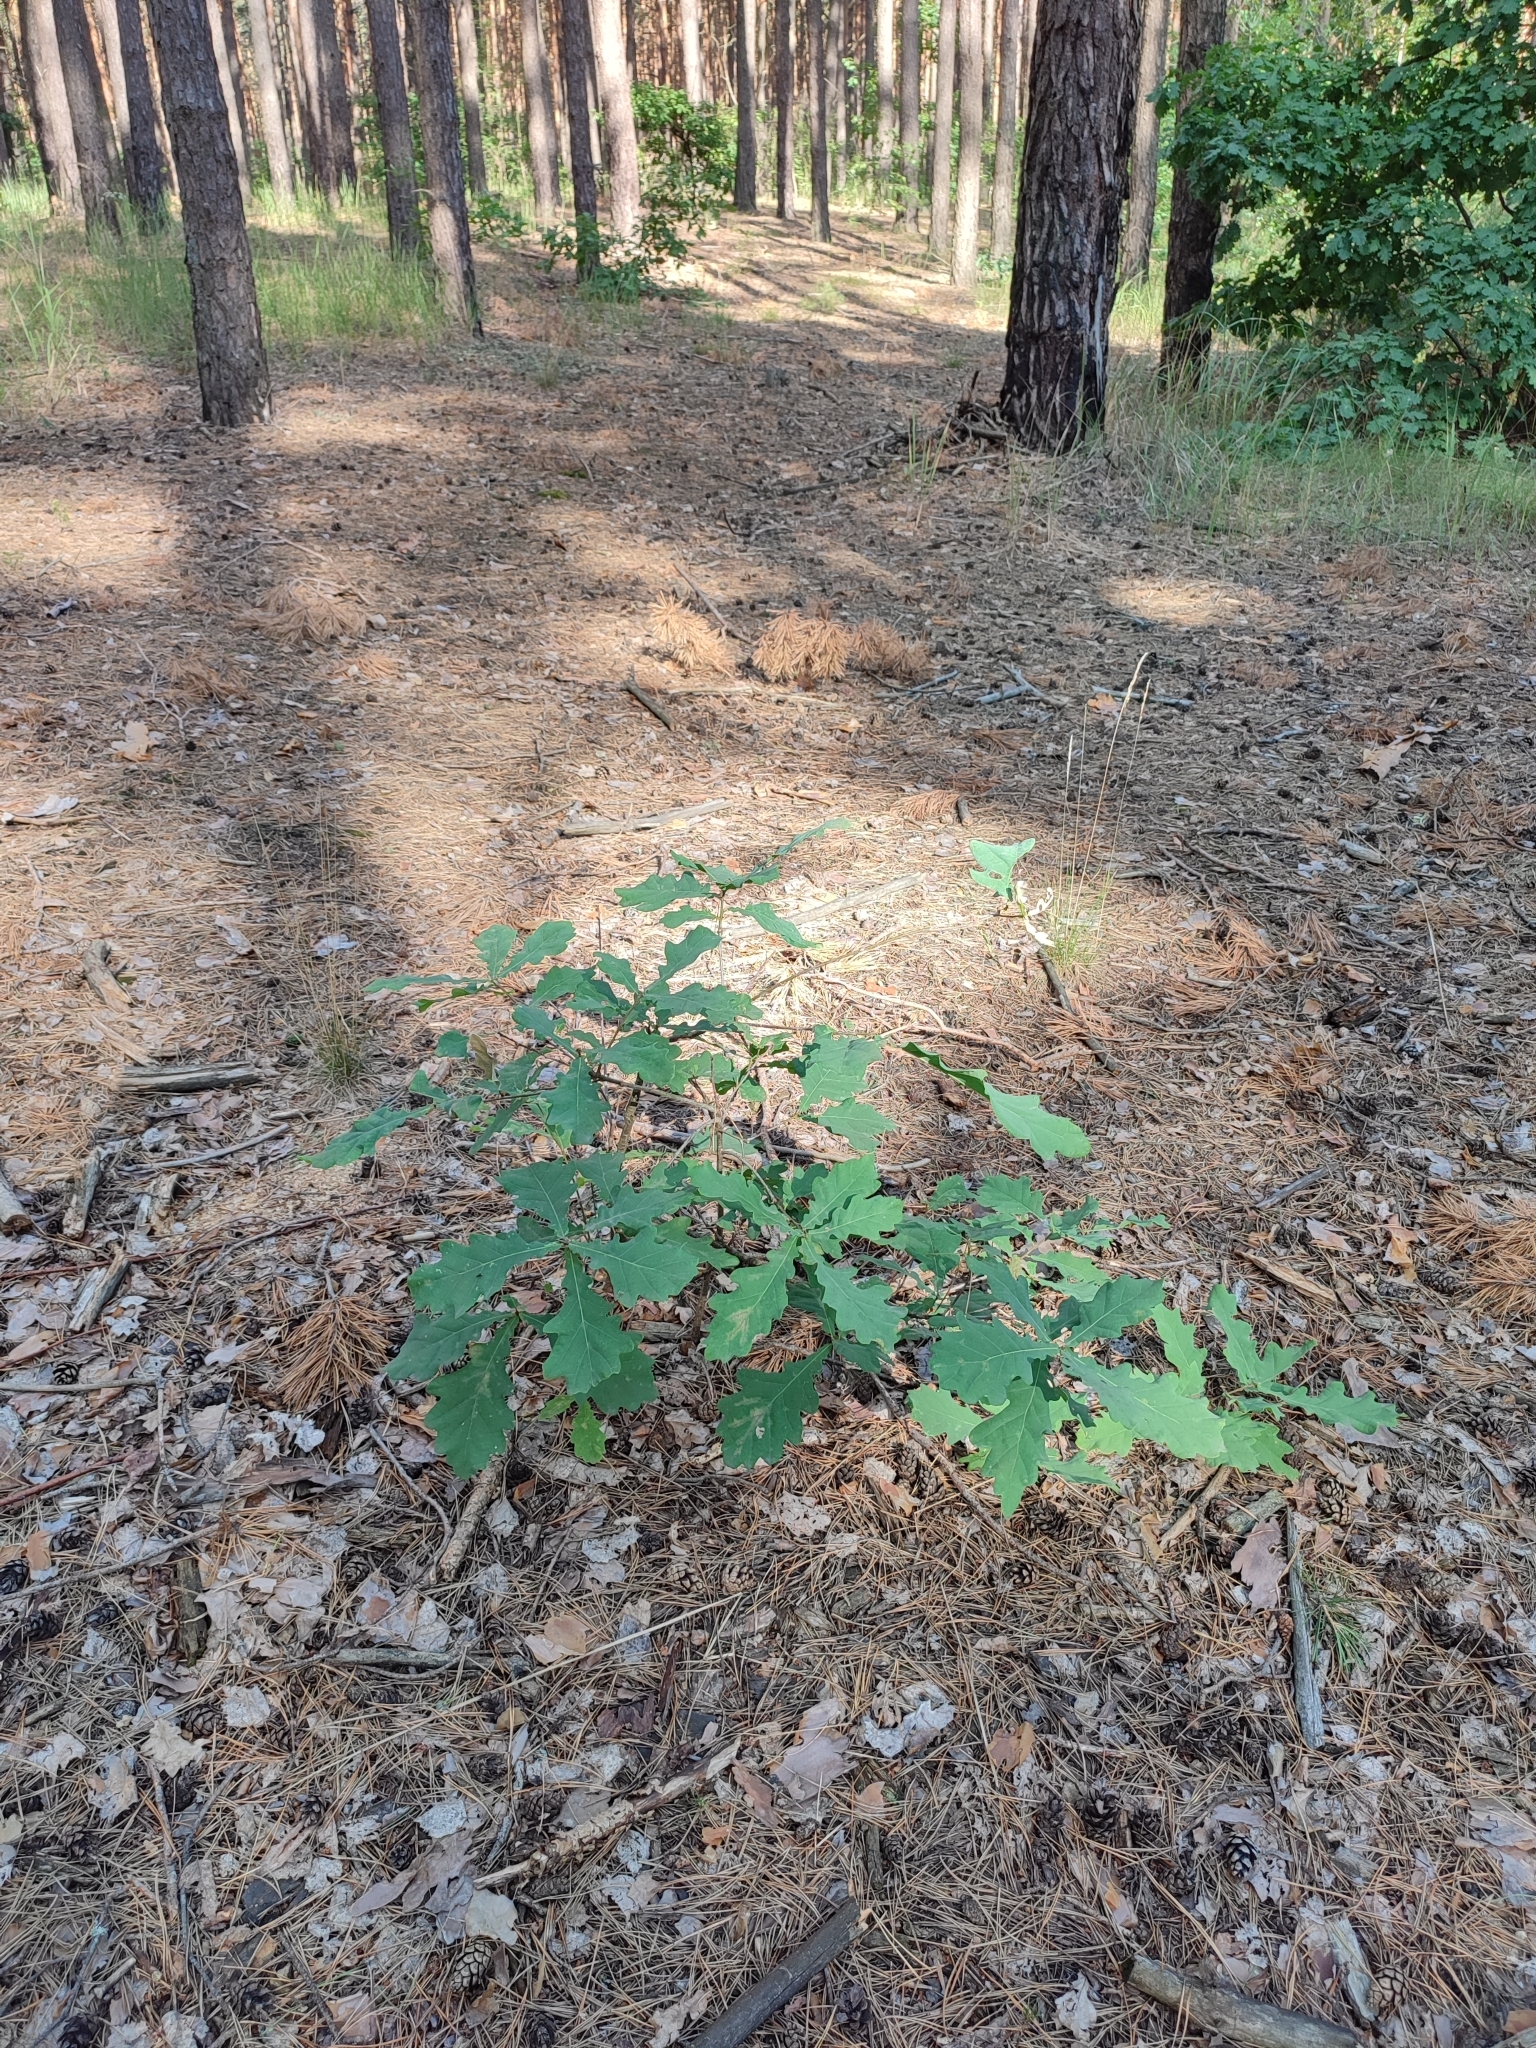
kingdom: Plantae
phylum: Tracheophyta
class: Magnoliopsida
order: Fagales
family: Fagaceae
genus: Quercus
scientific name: Quercus robur
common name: Pedunculate oak
